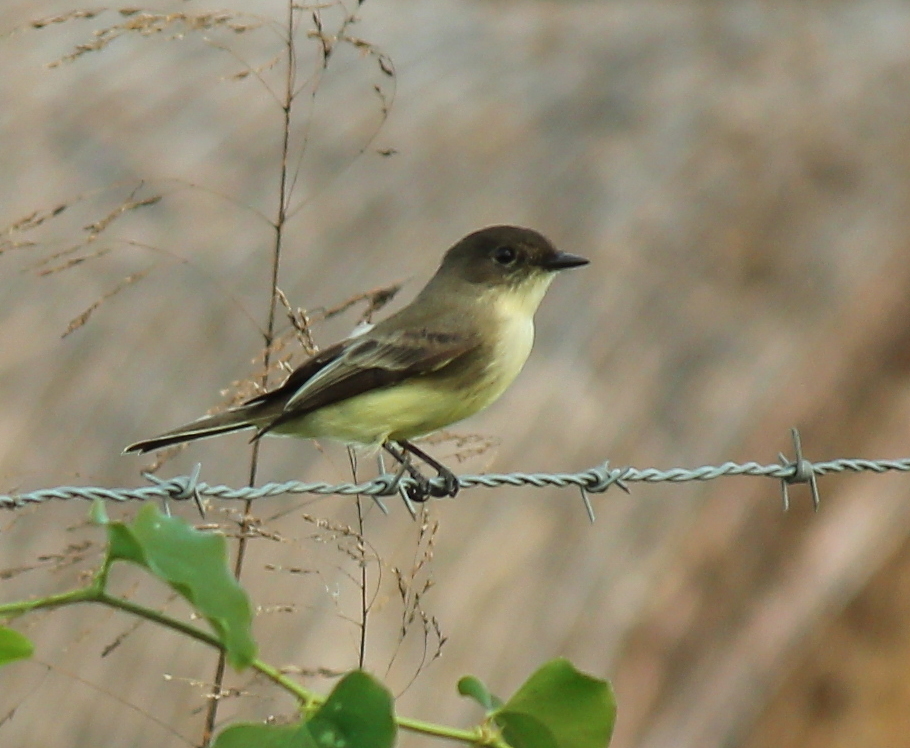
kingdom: Animalia
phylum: Chordata
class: Aves
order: Passeriformes
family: Tyrannidae
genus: Sayornis
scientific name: Sayornis phoebe
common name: Eastern phoebe
